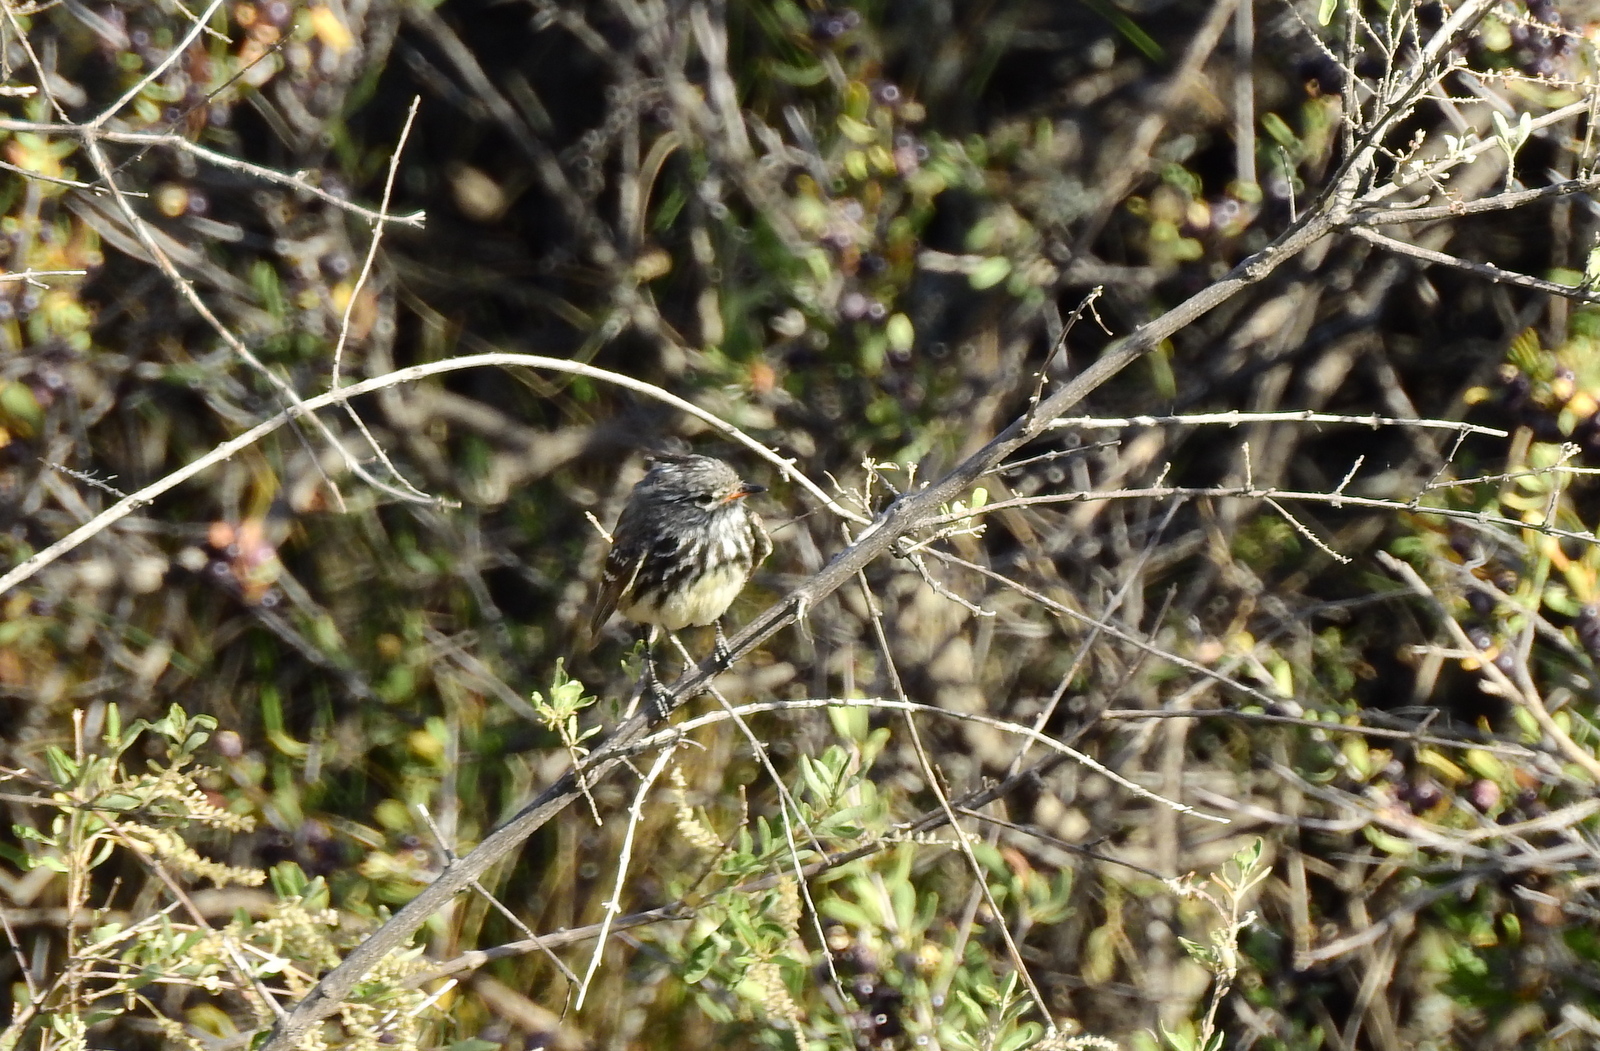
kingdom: Animalia
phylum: Chordata
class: Aves
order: Passeriformes
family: Tyrannidae
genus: Anairetes
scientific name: Anairetes flavirostris
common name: Yellow-billed tit-tyrant
